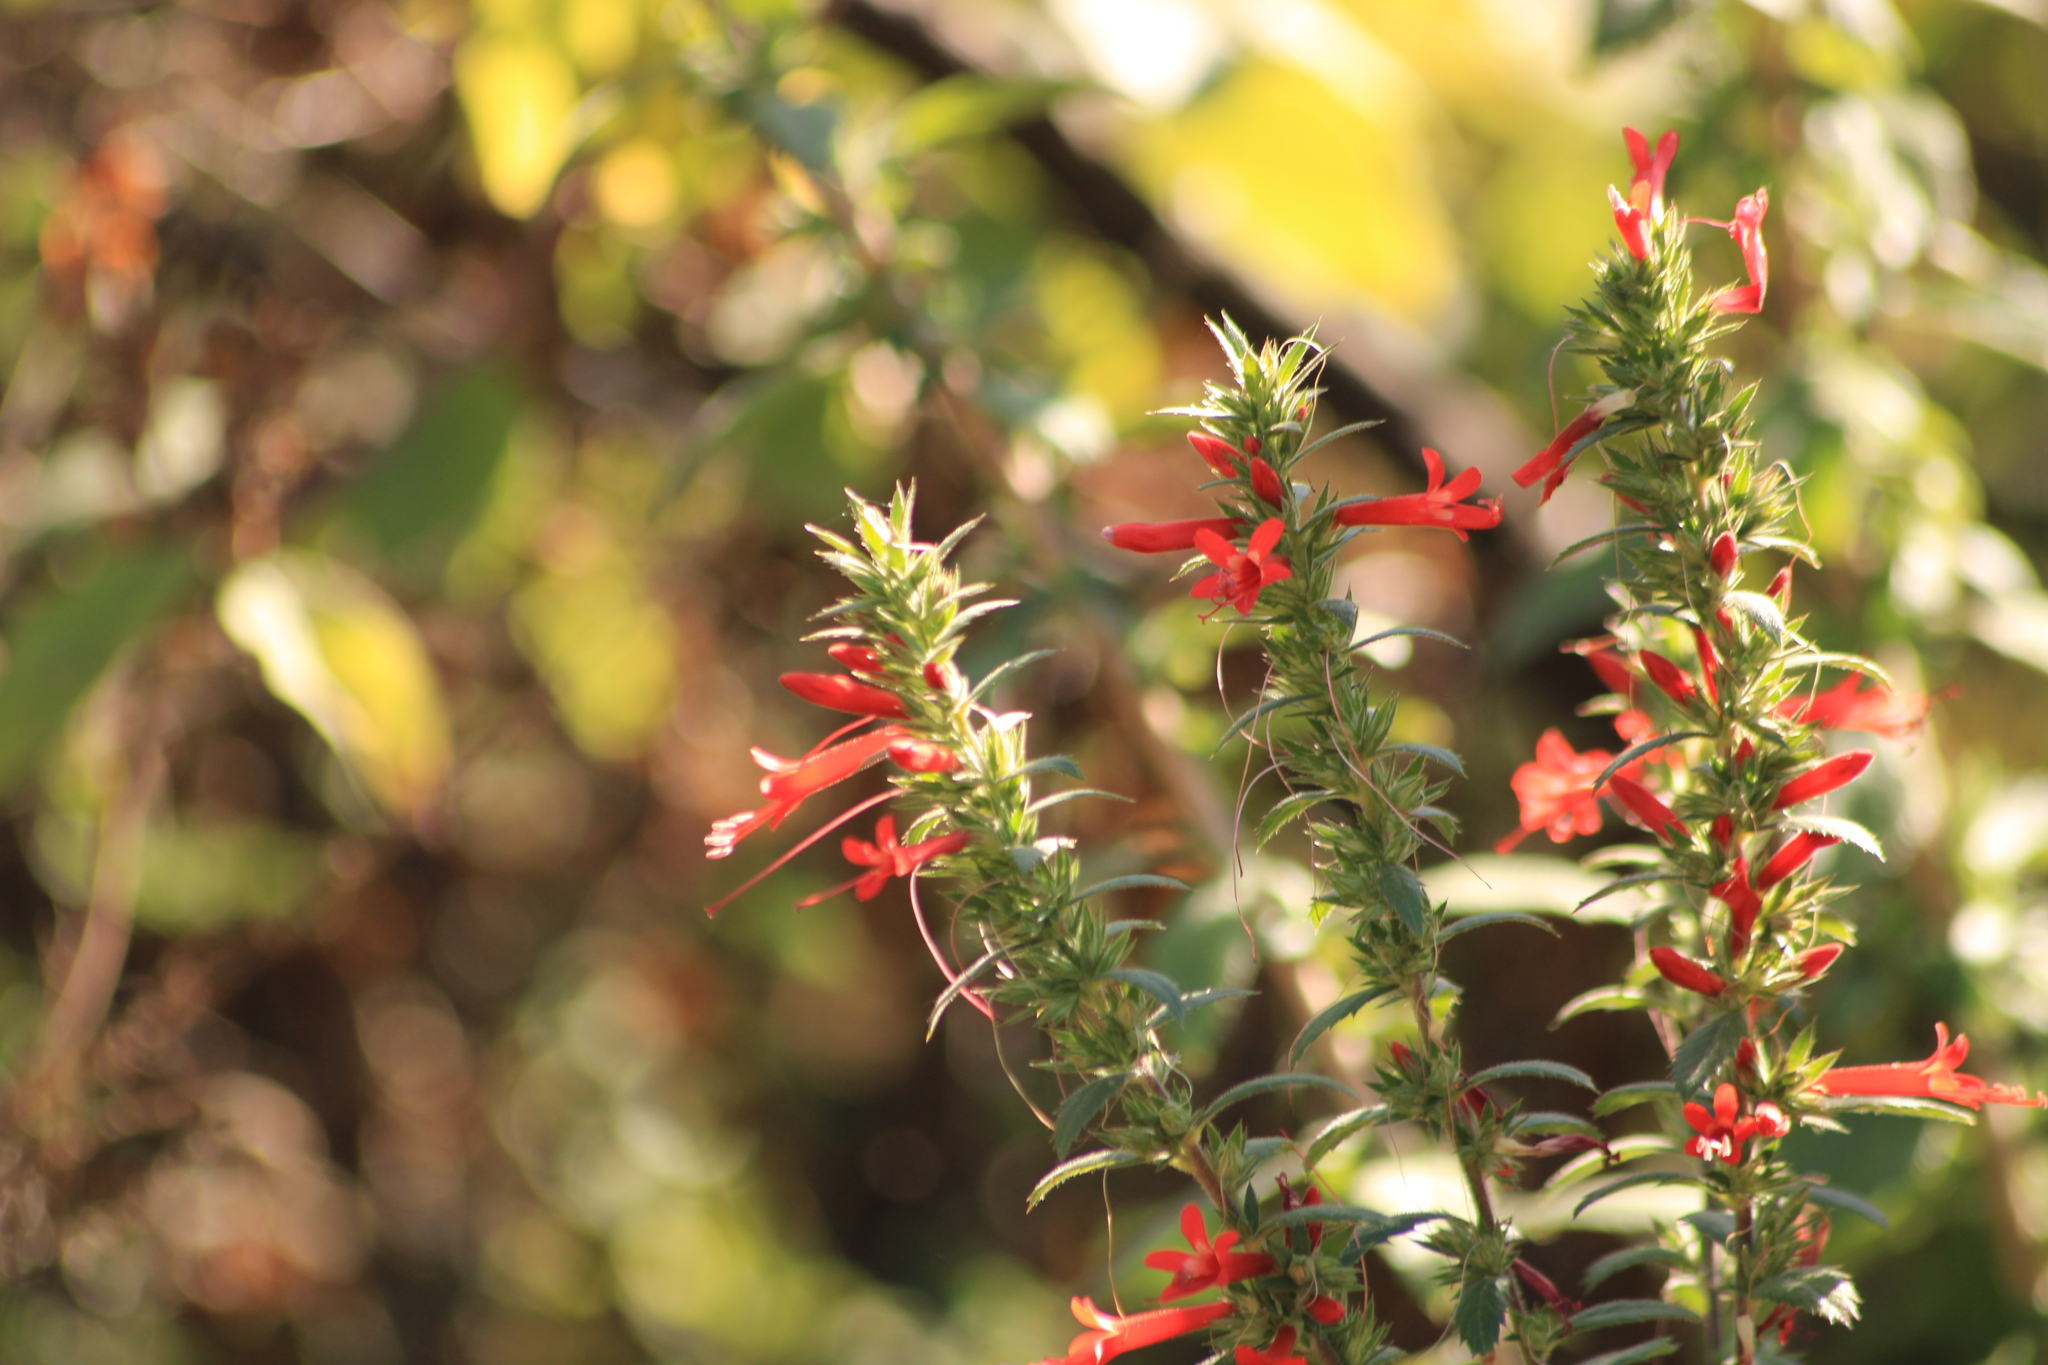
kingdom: Plantae
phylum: Tracheophyta
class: Magnoliopsida
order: Ericales
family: Polemoniaceae
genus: Loeselia
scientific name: Loeselia mexicana
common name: Mexican false calico
